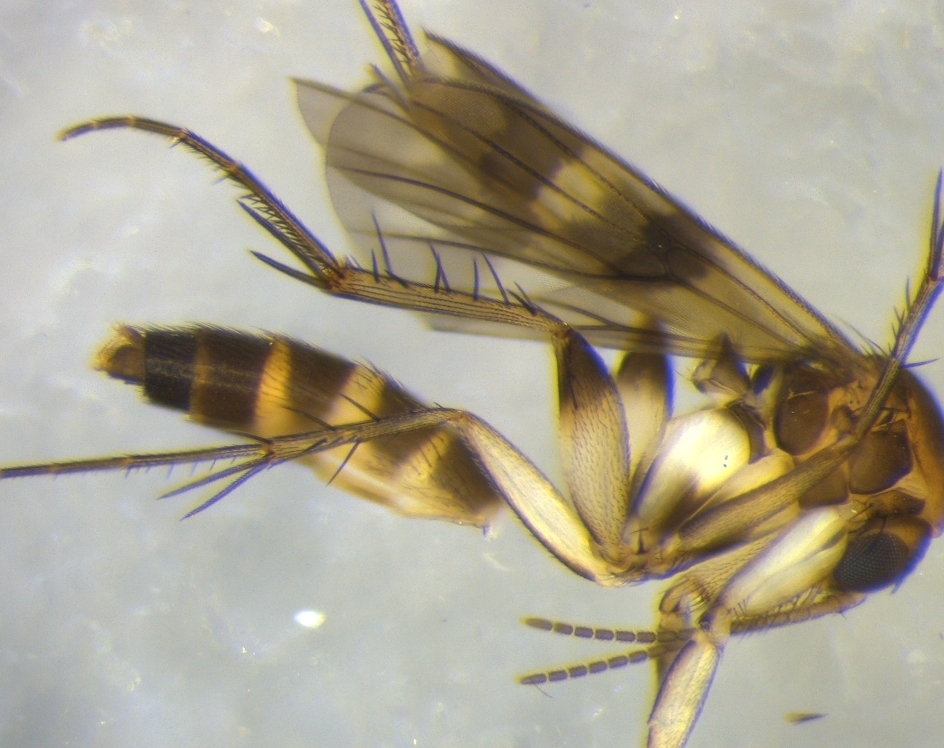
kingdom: Animalia
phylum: Arthropoda
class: Insecta
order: Diptera
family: Mycetophilidae
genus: Mycetophila
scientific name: Mycetophila submarshalli
